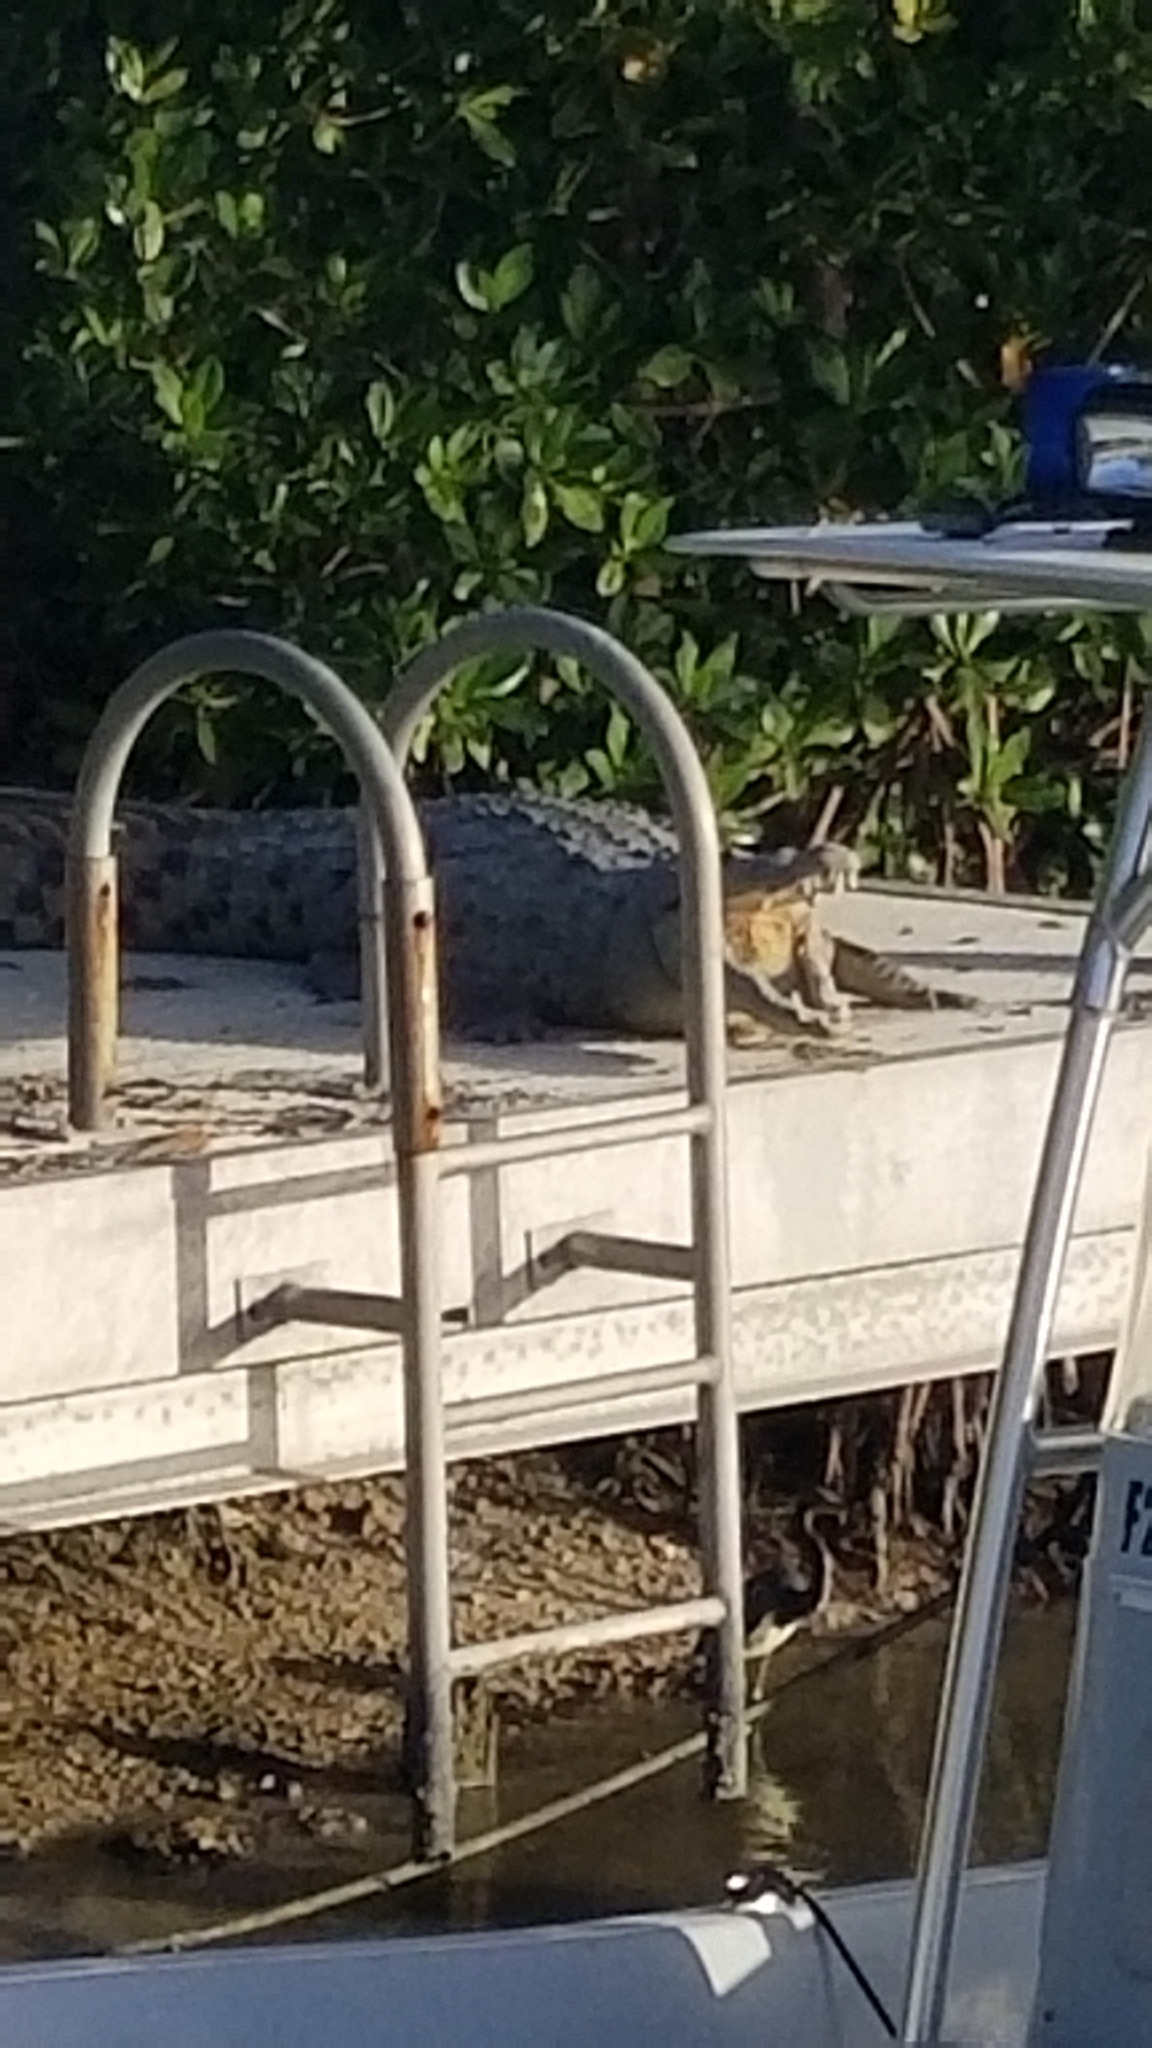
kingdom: Animalia
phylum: Chordata
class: Crocodylia
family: Crocodylidae
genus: Crocodylus
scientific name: Crocodylus acutus
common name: American crocodile
